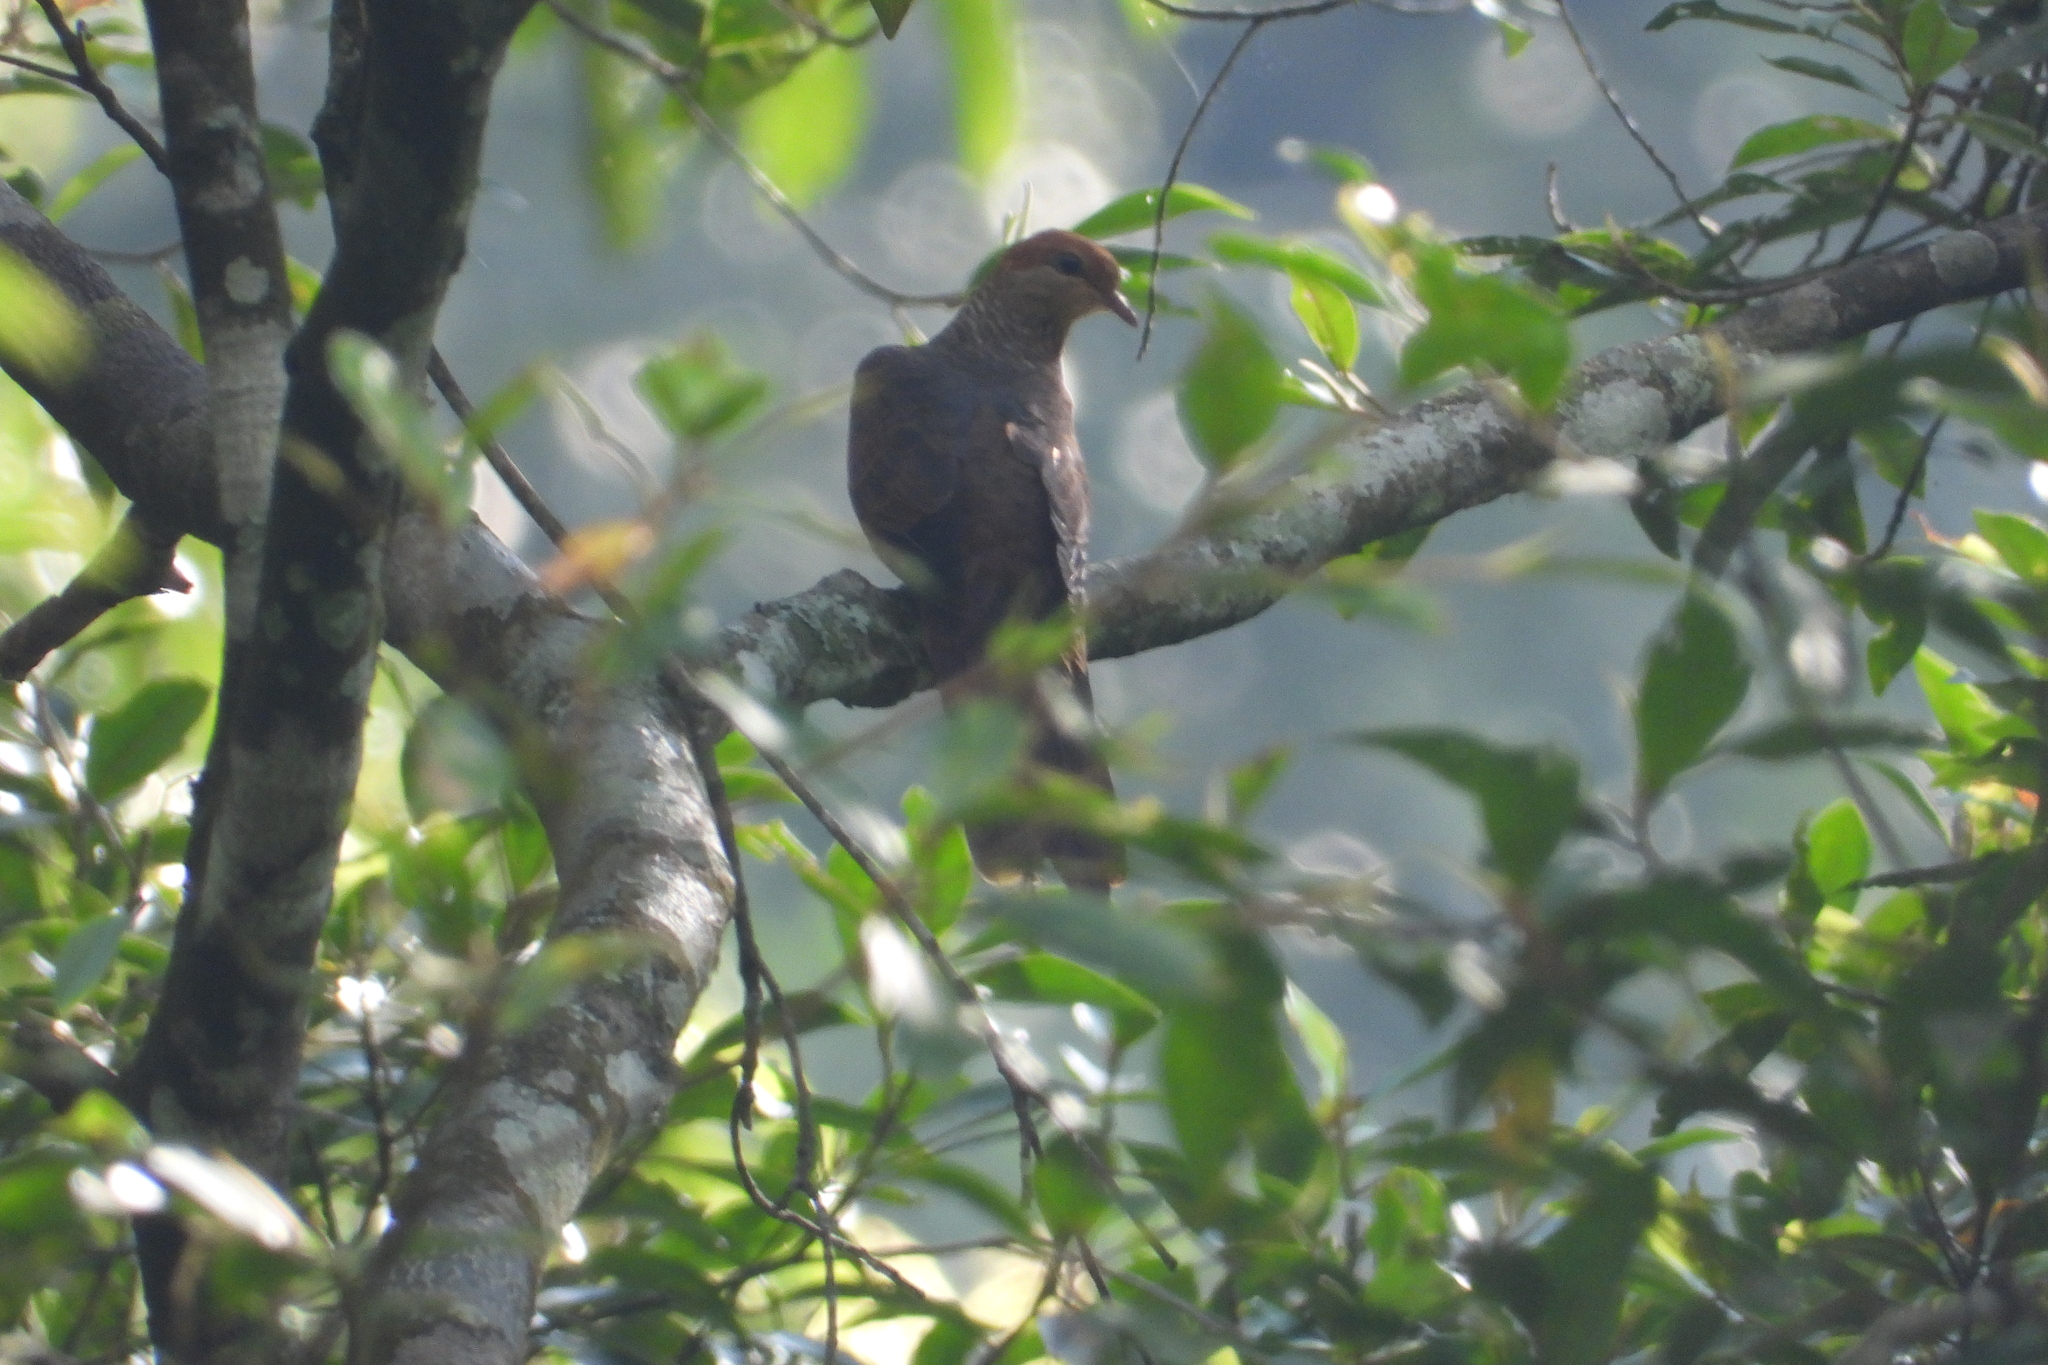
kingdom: Animalia
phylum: Chordata
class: Aves
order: Columbiformes
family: Columbidae
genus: Macropygia
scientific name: Macropygia ruficeps
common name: Little cuckoo-dove
